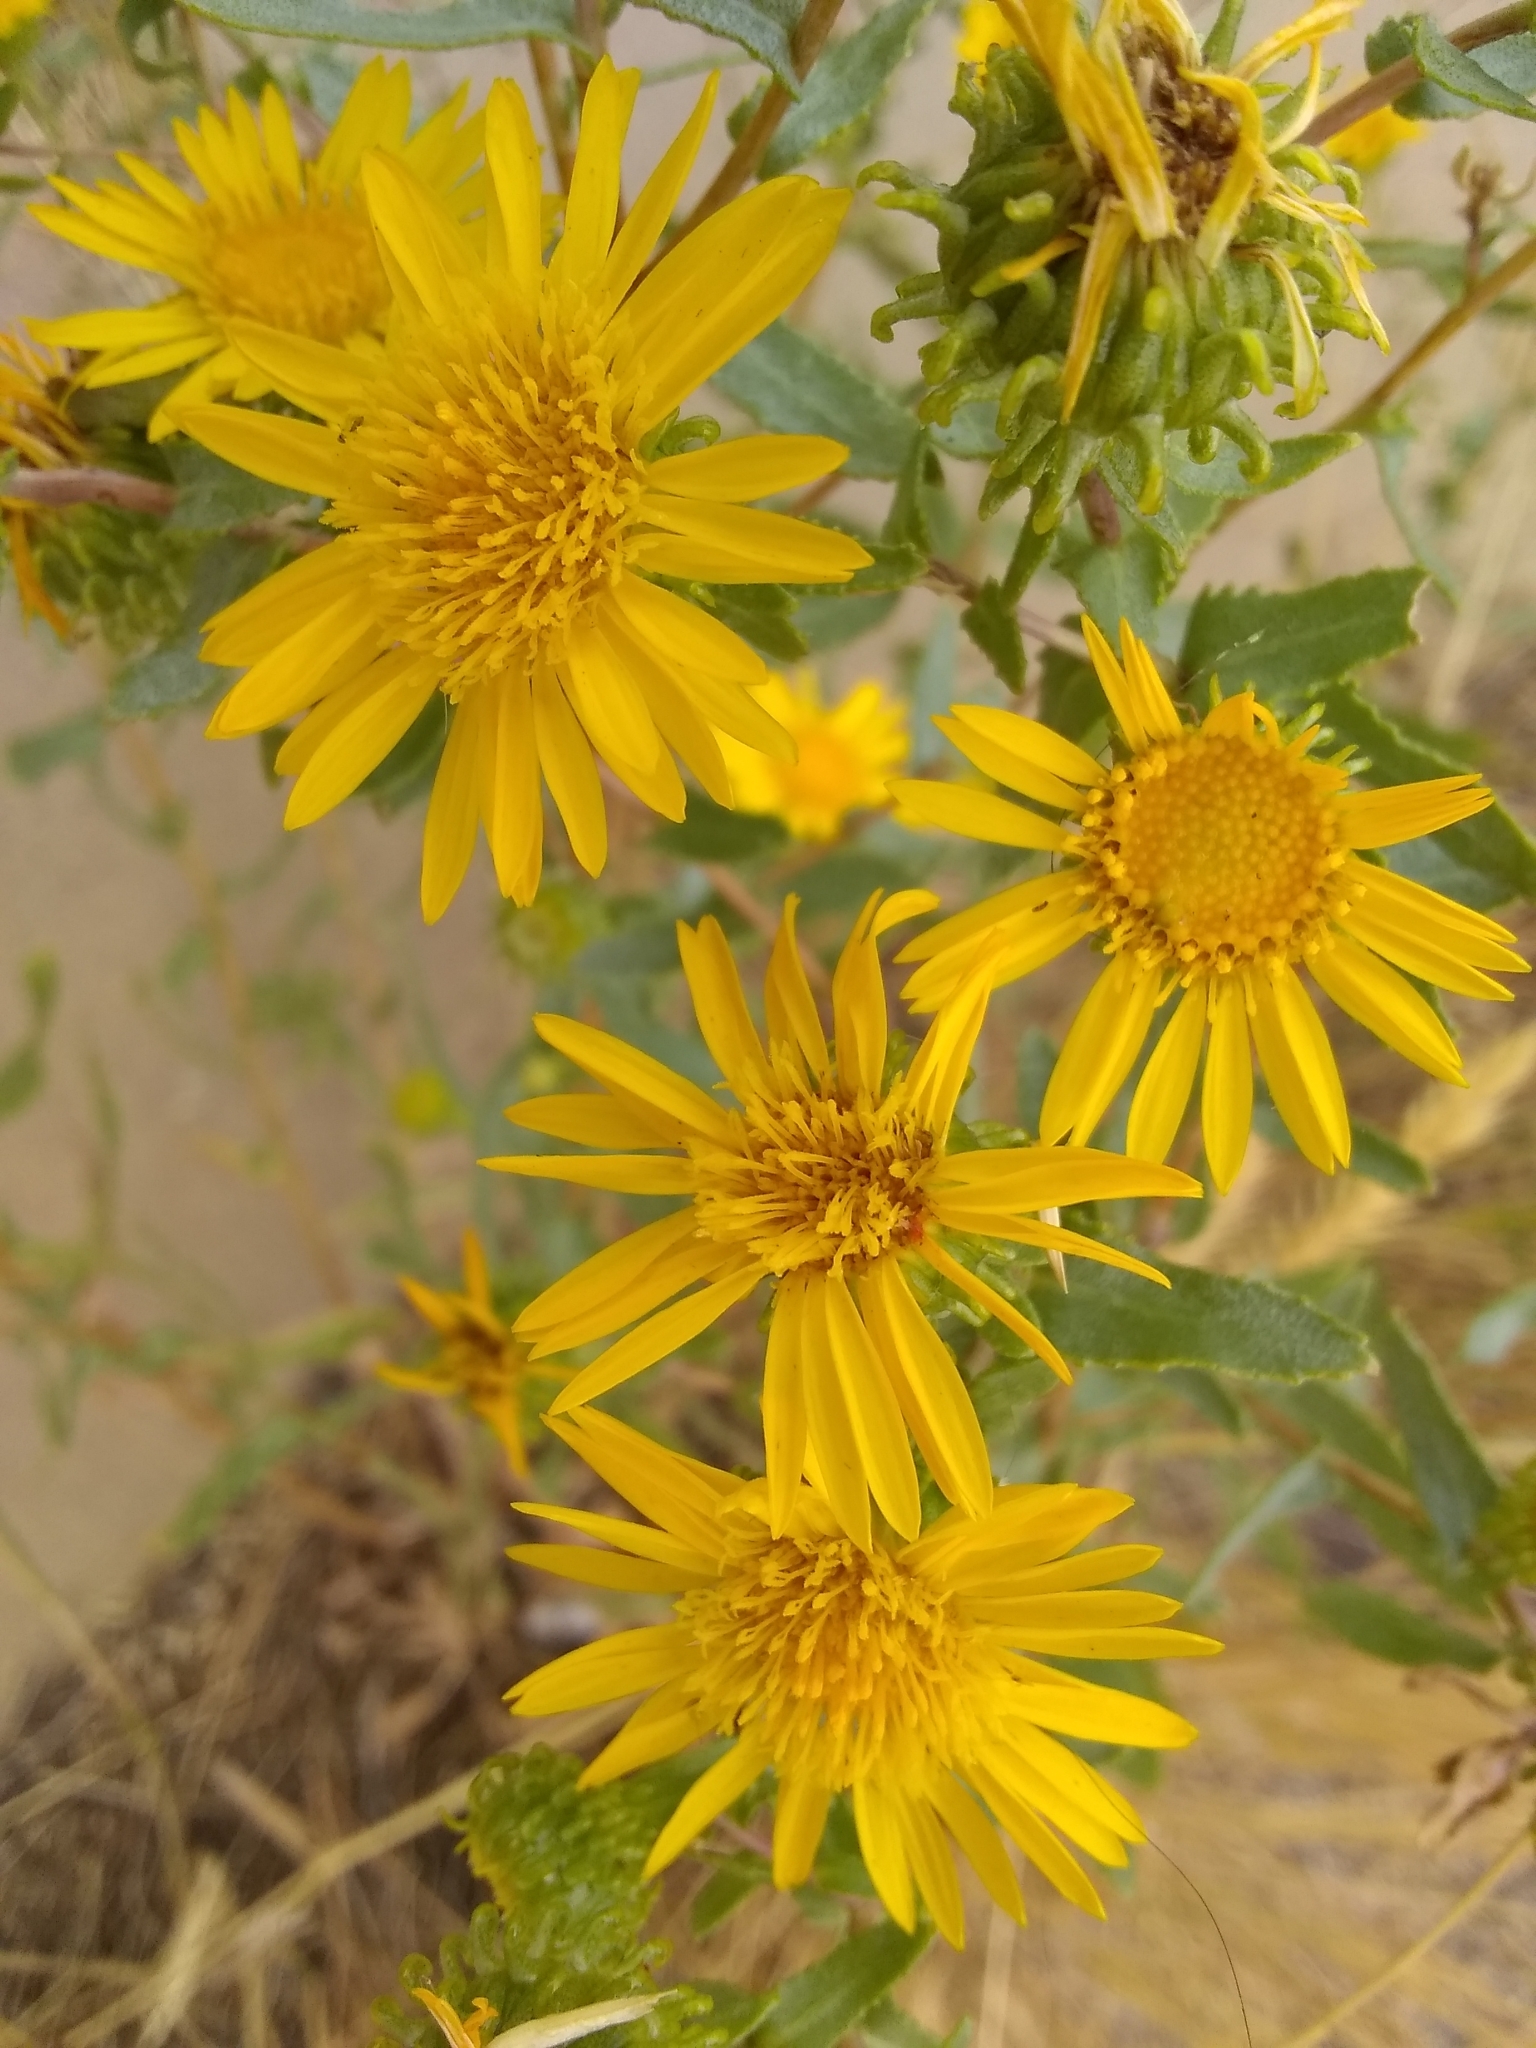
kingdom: Plantae
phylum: Tracheophyta
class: Magnoliopsida
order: Asterales
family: Asteraceae
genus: Grindelia
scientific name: Grindelia squarrosa
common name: Curly-cup gumweed
